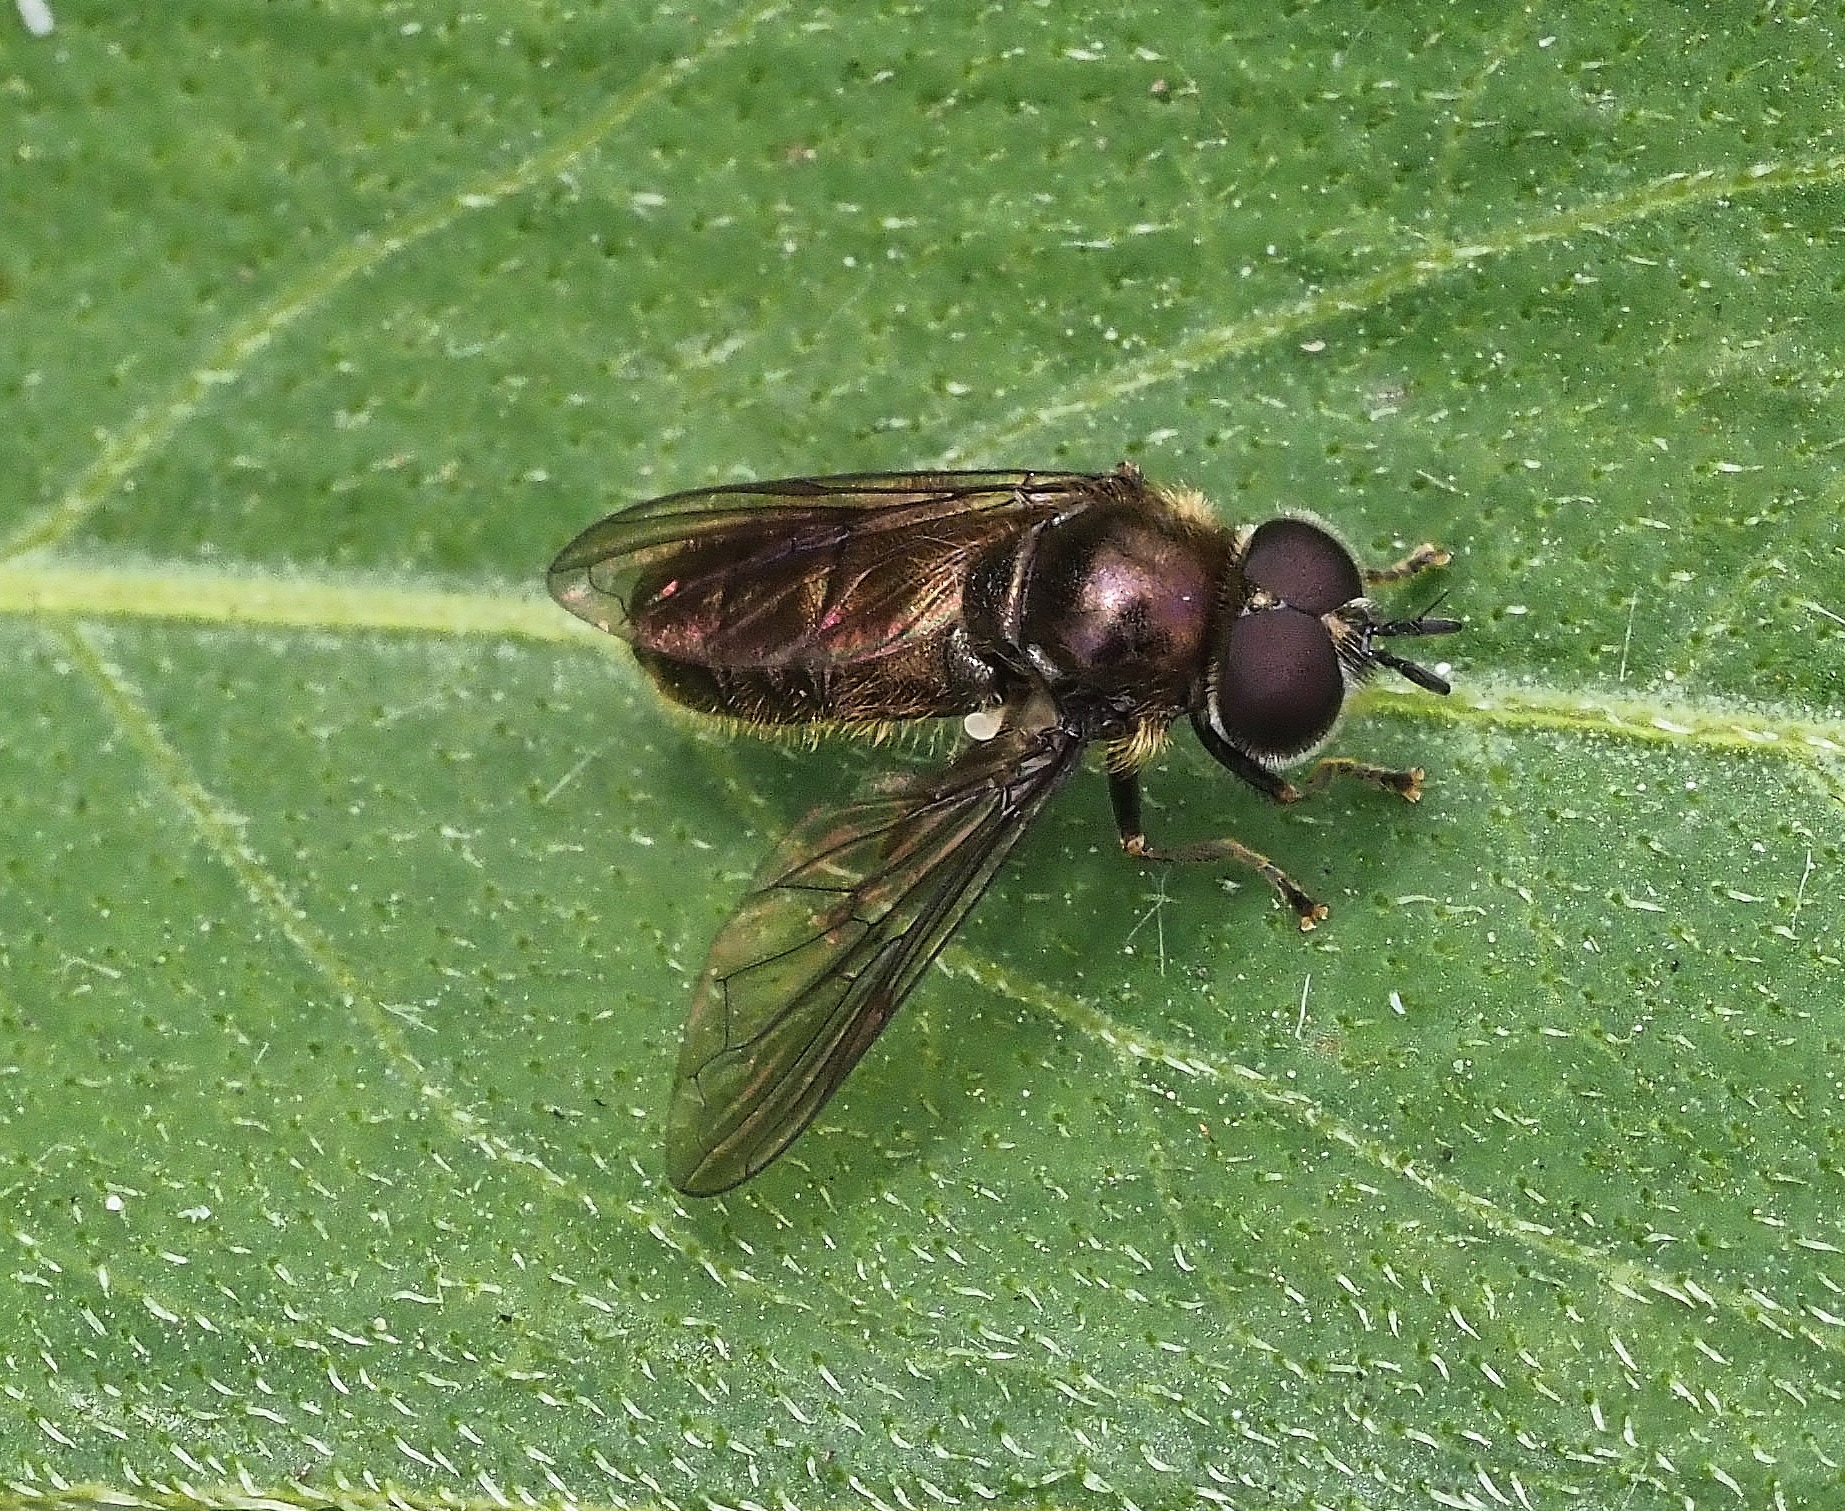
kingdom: Animalia
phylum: Arthropoda
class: Insecta
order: Diptera
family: Syrphidae
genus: Pipizella
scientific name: Pipizella
